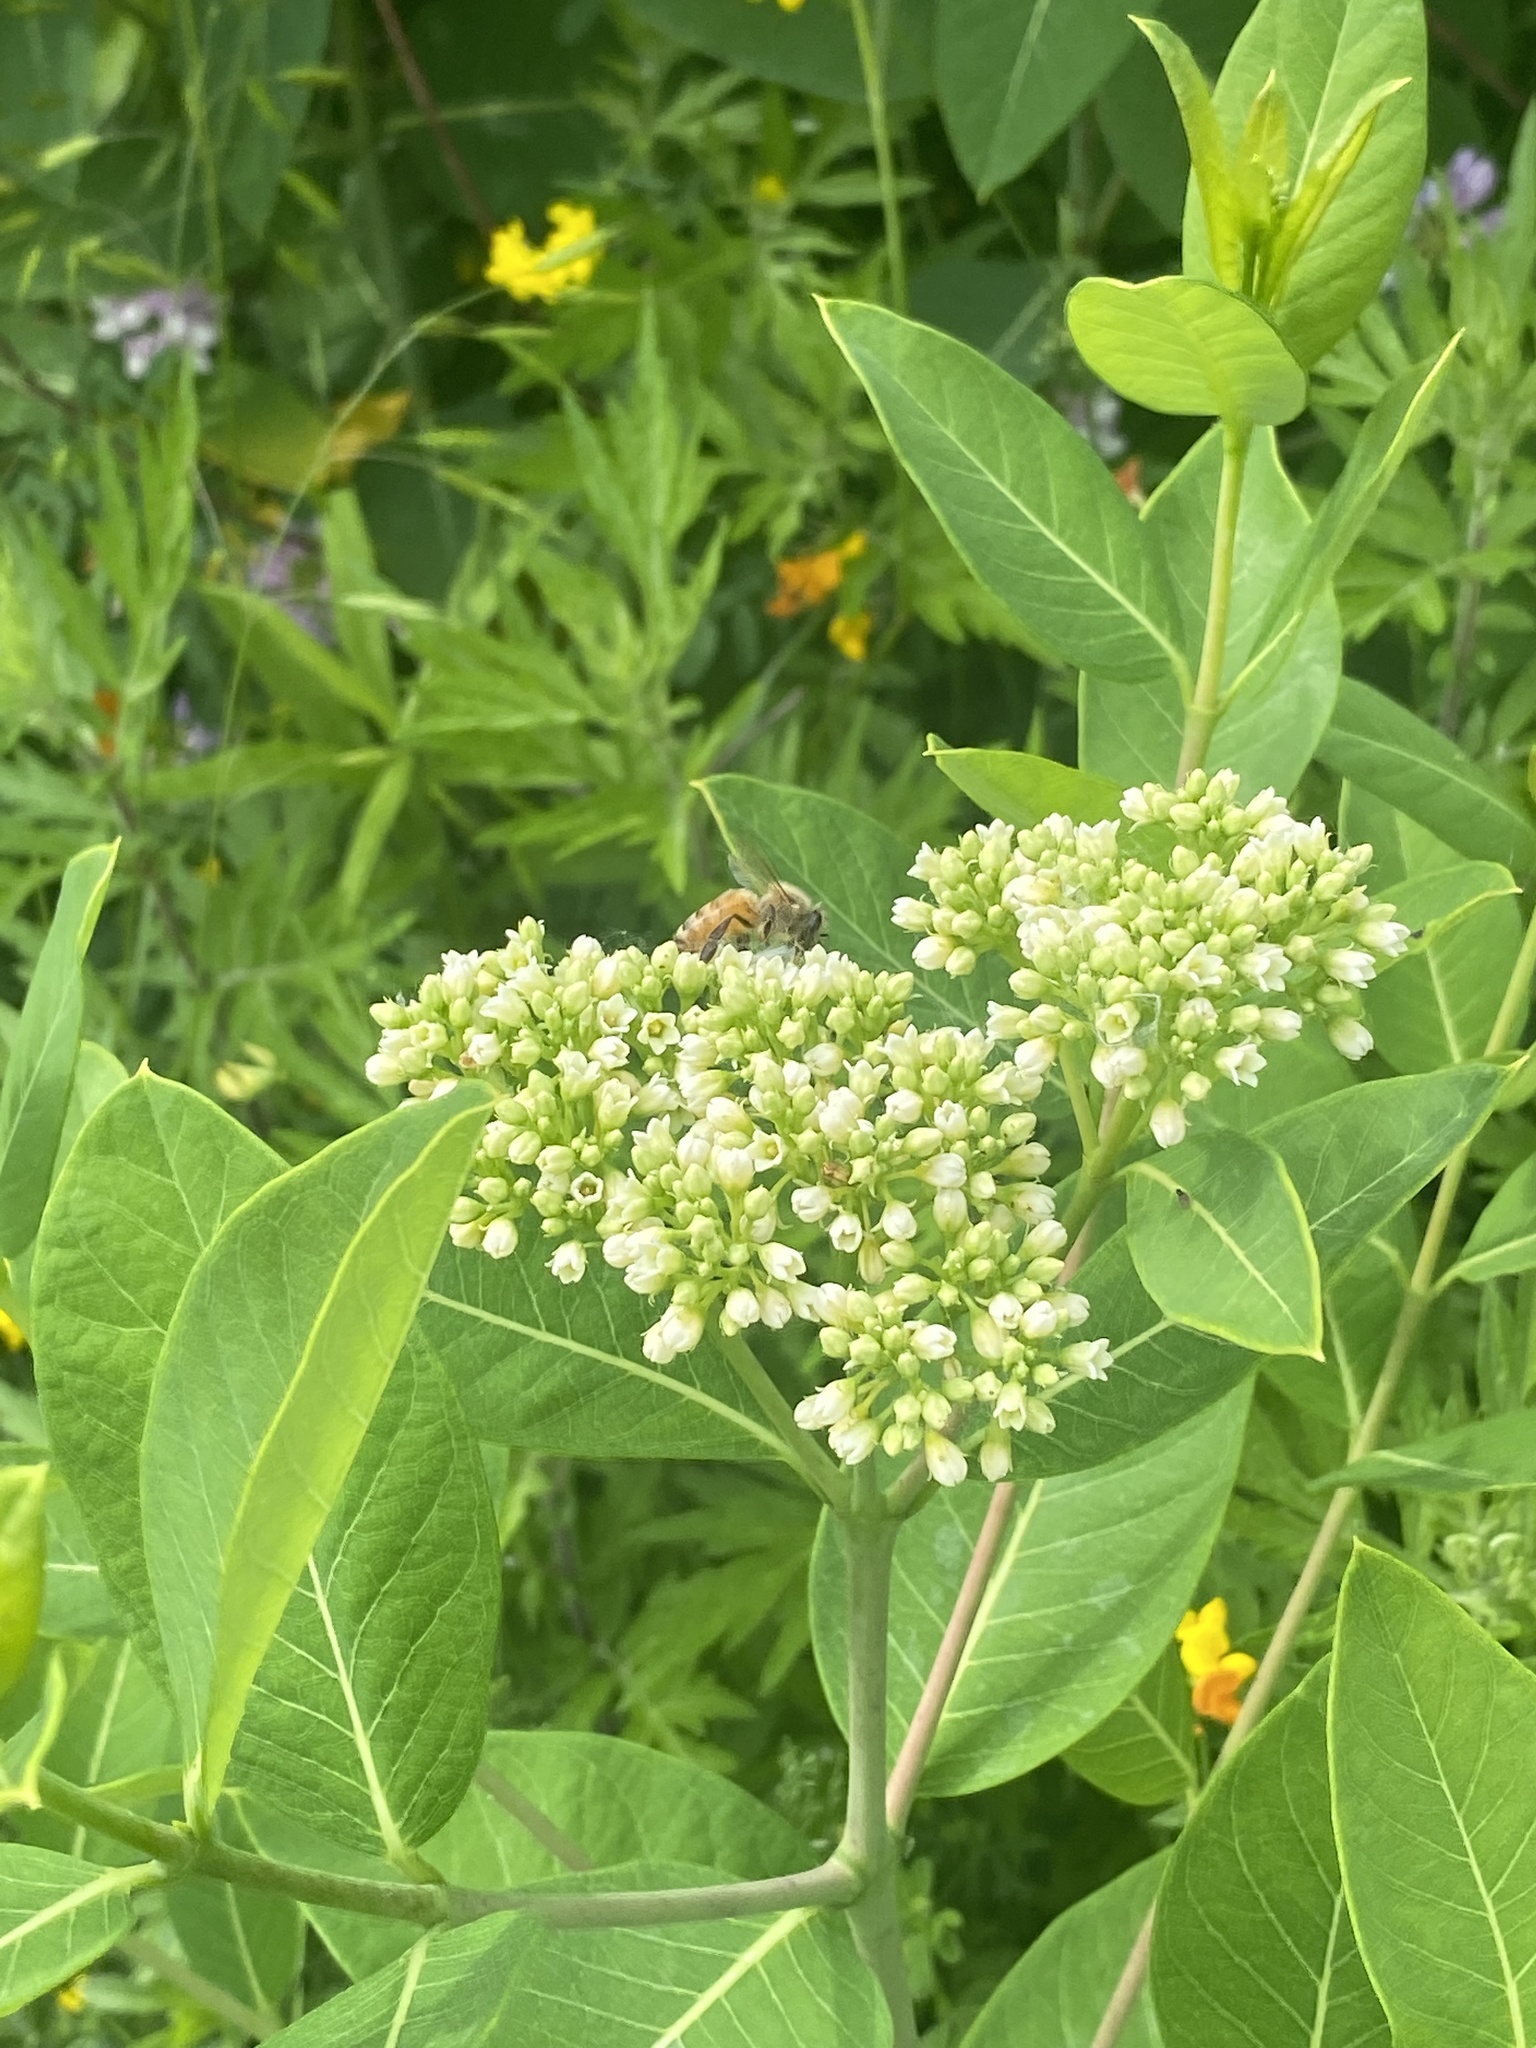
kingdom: Plantae
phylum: Tracheophyta
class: Magnoliopsida
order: Gentianales
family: Apocynaceae
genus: Apocynum
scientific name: Apocynum cannabinum
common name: Hemp dogbane
